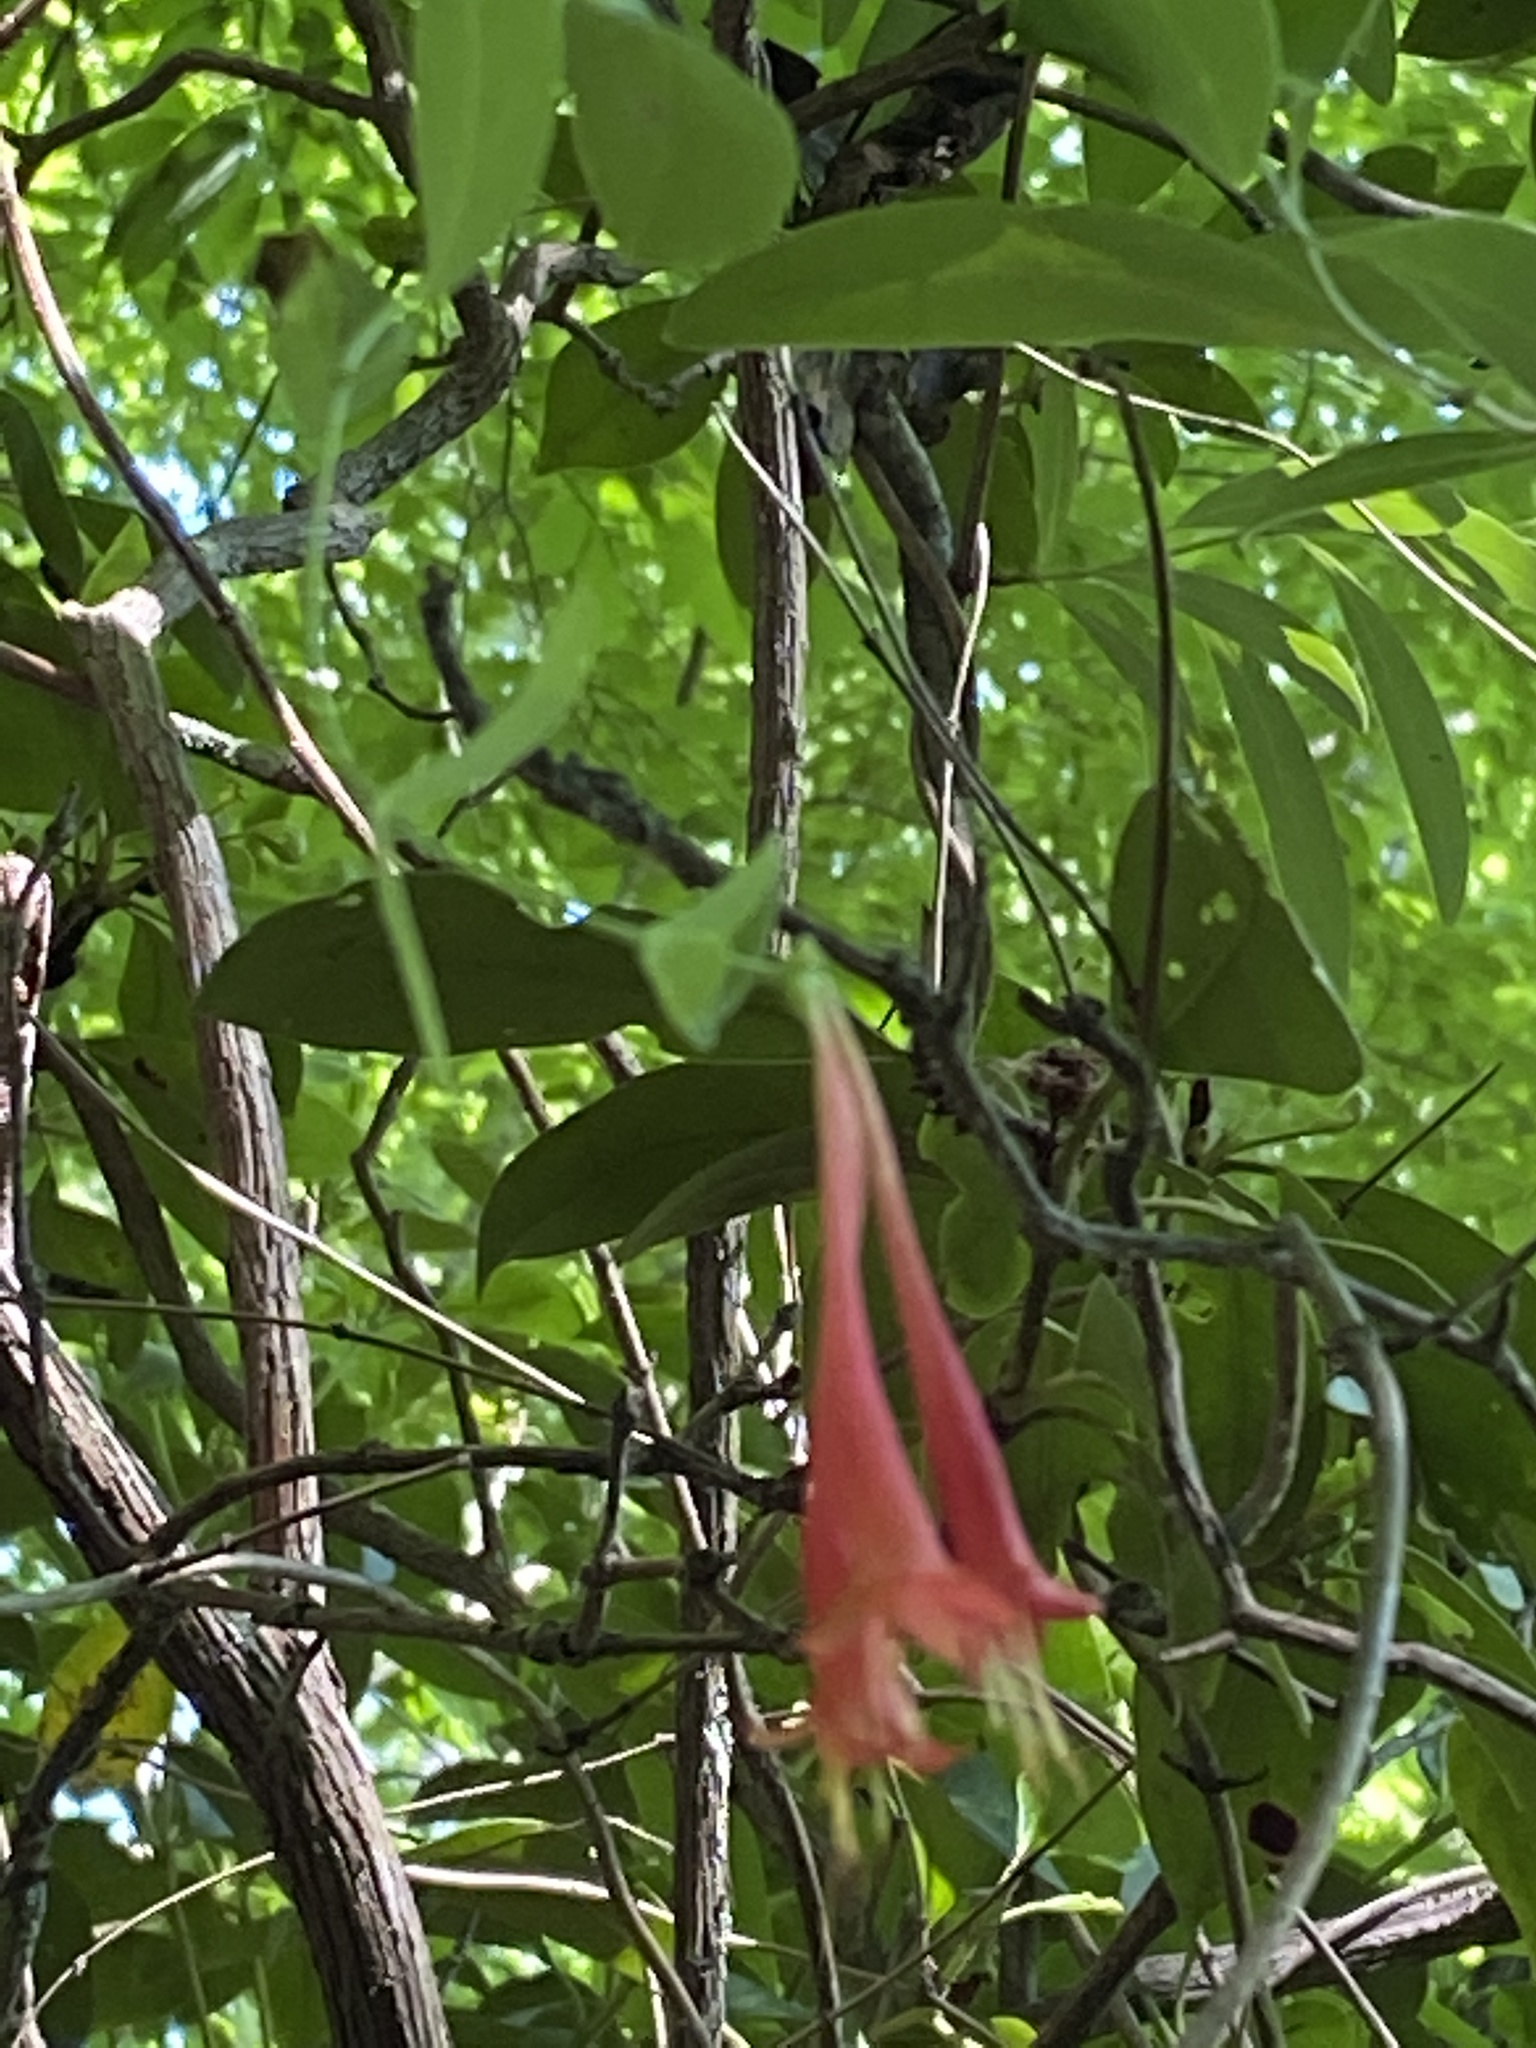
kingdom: Plantae
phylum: Tracheophyta
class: Magnoliopsida
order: Dipsacales
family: Caprifoliaceae
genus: Lonicera
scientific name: Lonicera sempervirens
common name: Coral honeysuckle
